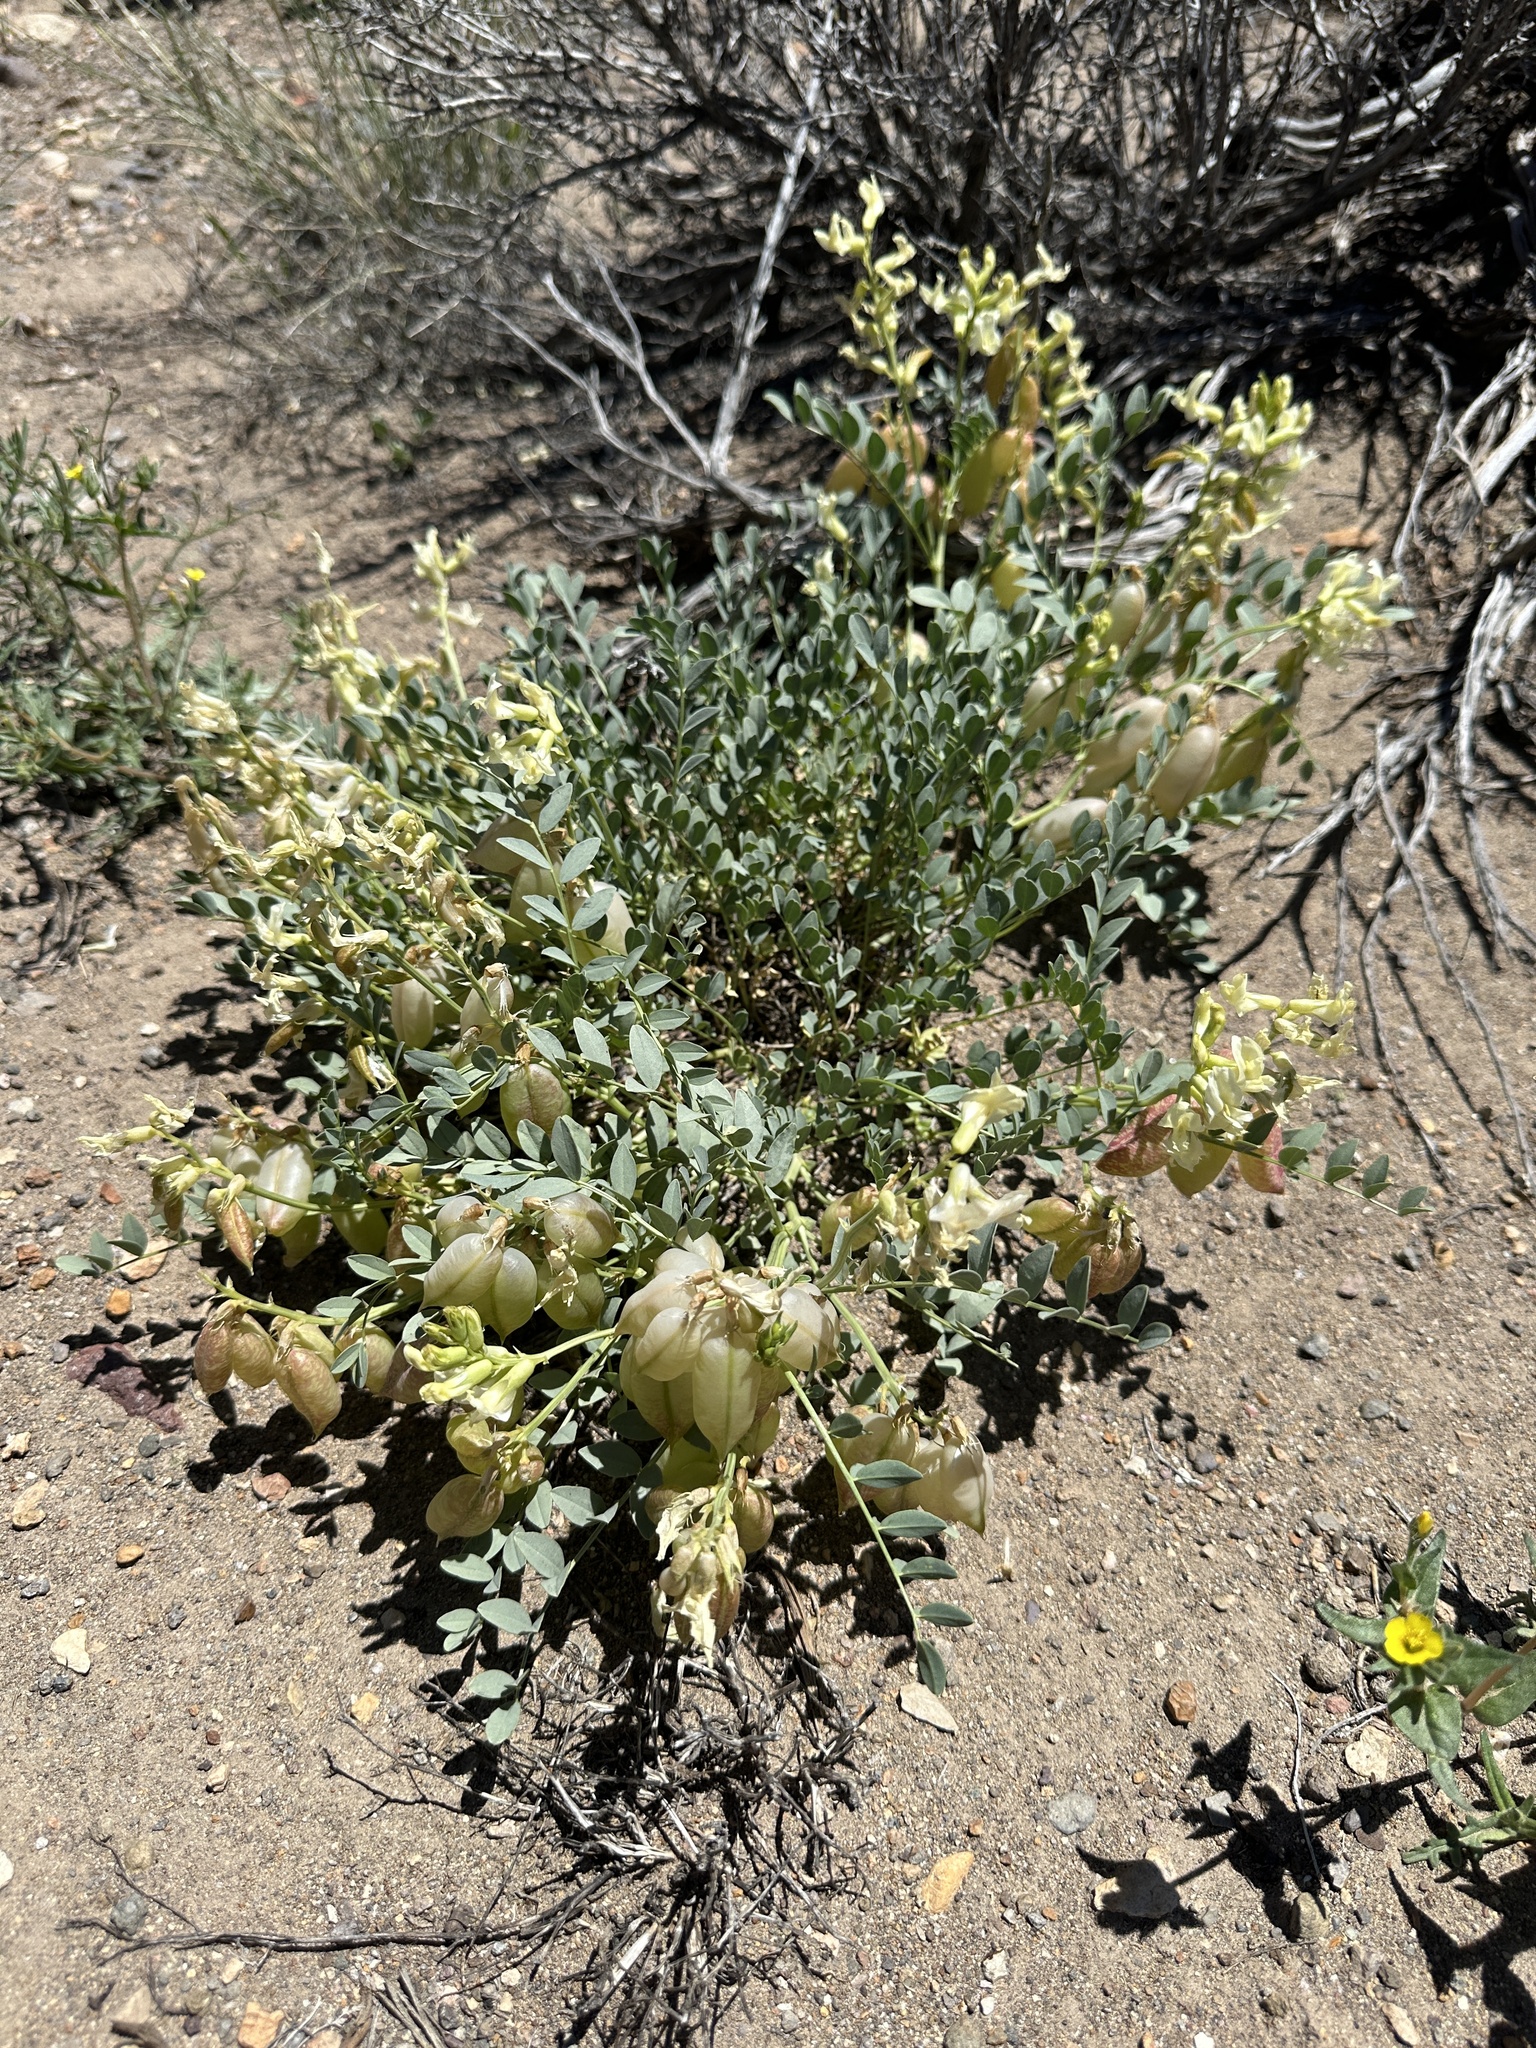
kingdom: Plantae
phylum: Tracheophyta
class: Magnoliopsida
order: Fabales
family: Fabaceae
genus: Astragalus
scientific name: Astragalus oophorus
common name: Egg milkvetch
